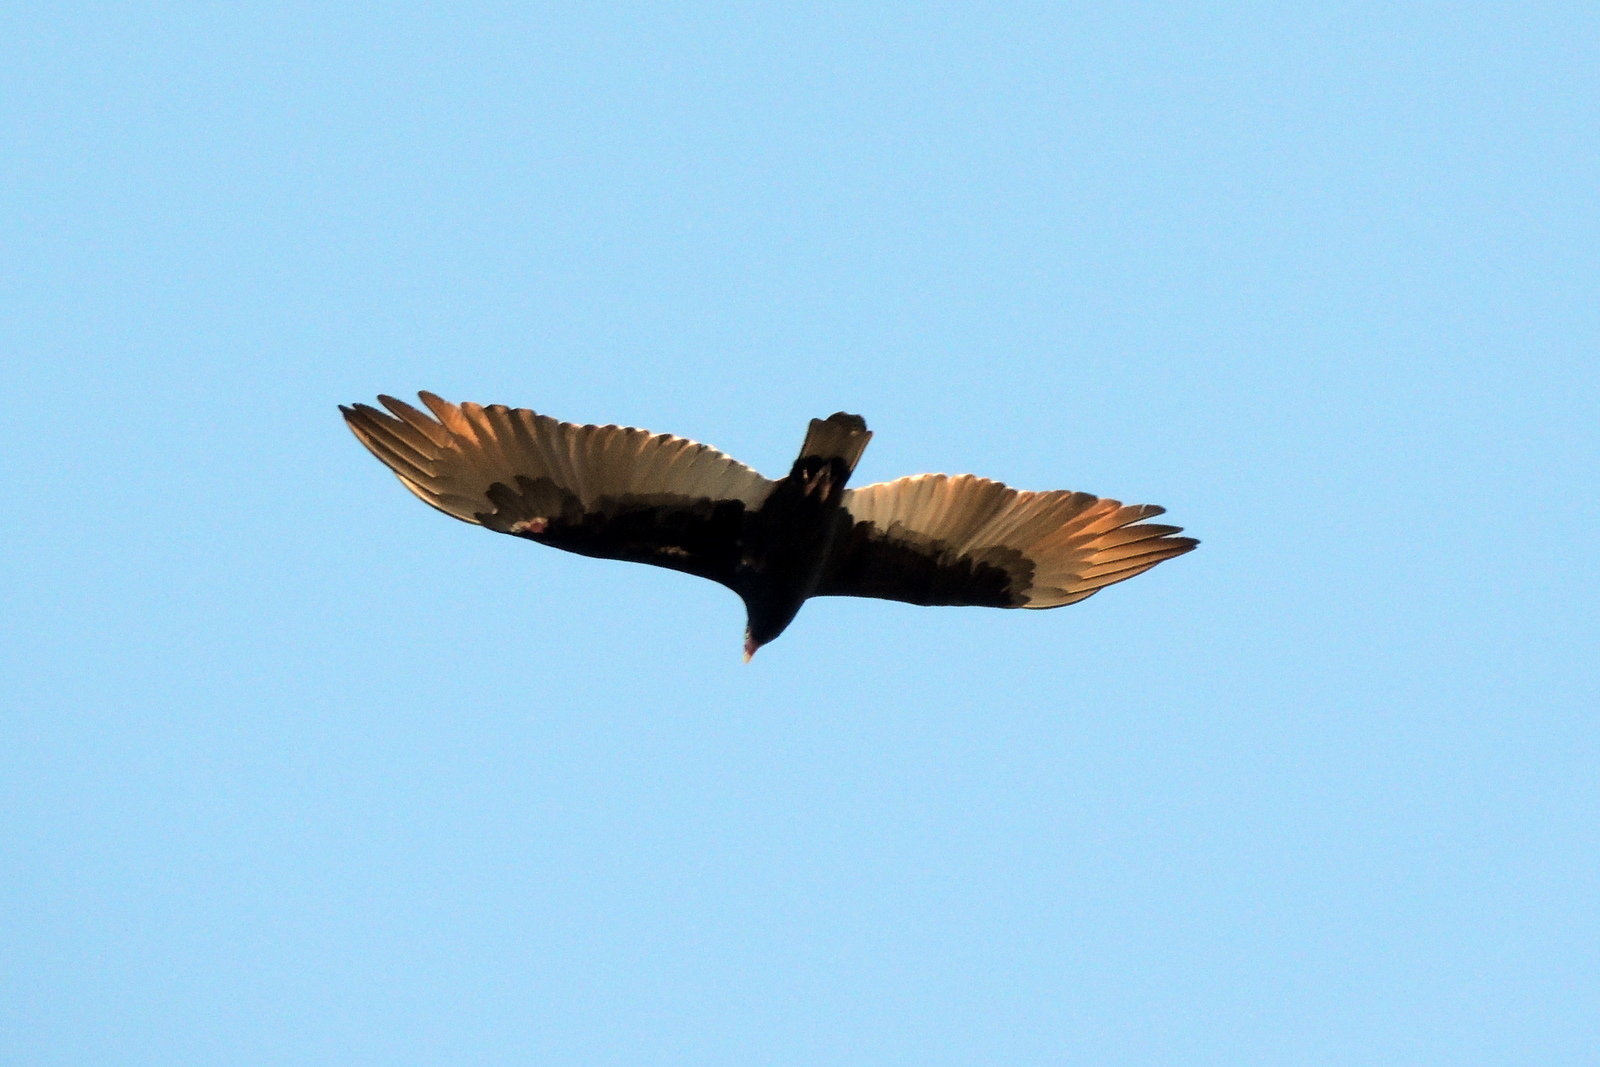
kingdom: Animalia
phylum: Chordata
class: Aves
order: Accipitriformes
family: Cathartidae
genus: Cathartes
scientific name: Cathartes aura
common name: Turkey vulture
